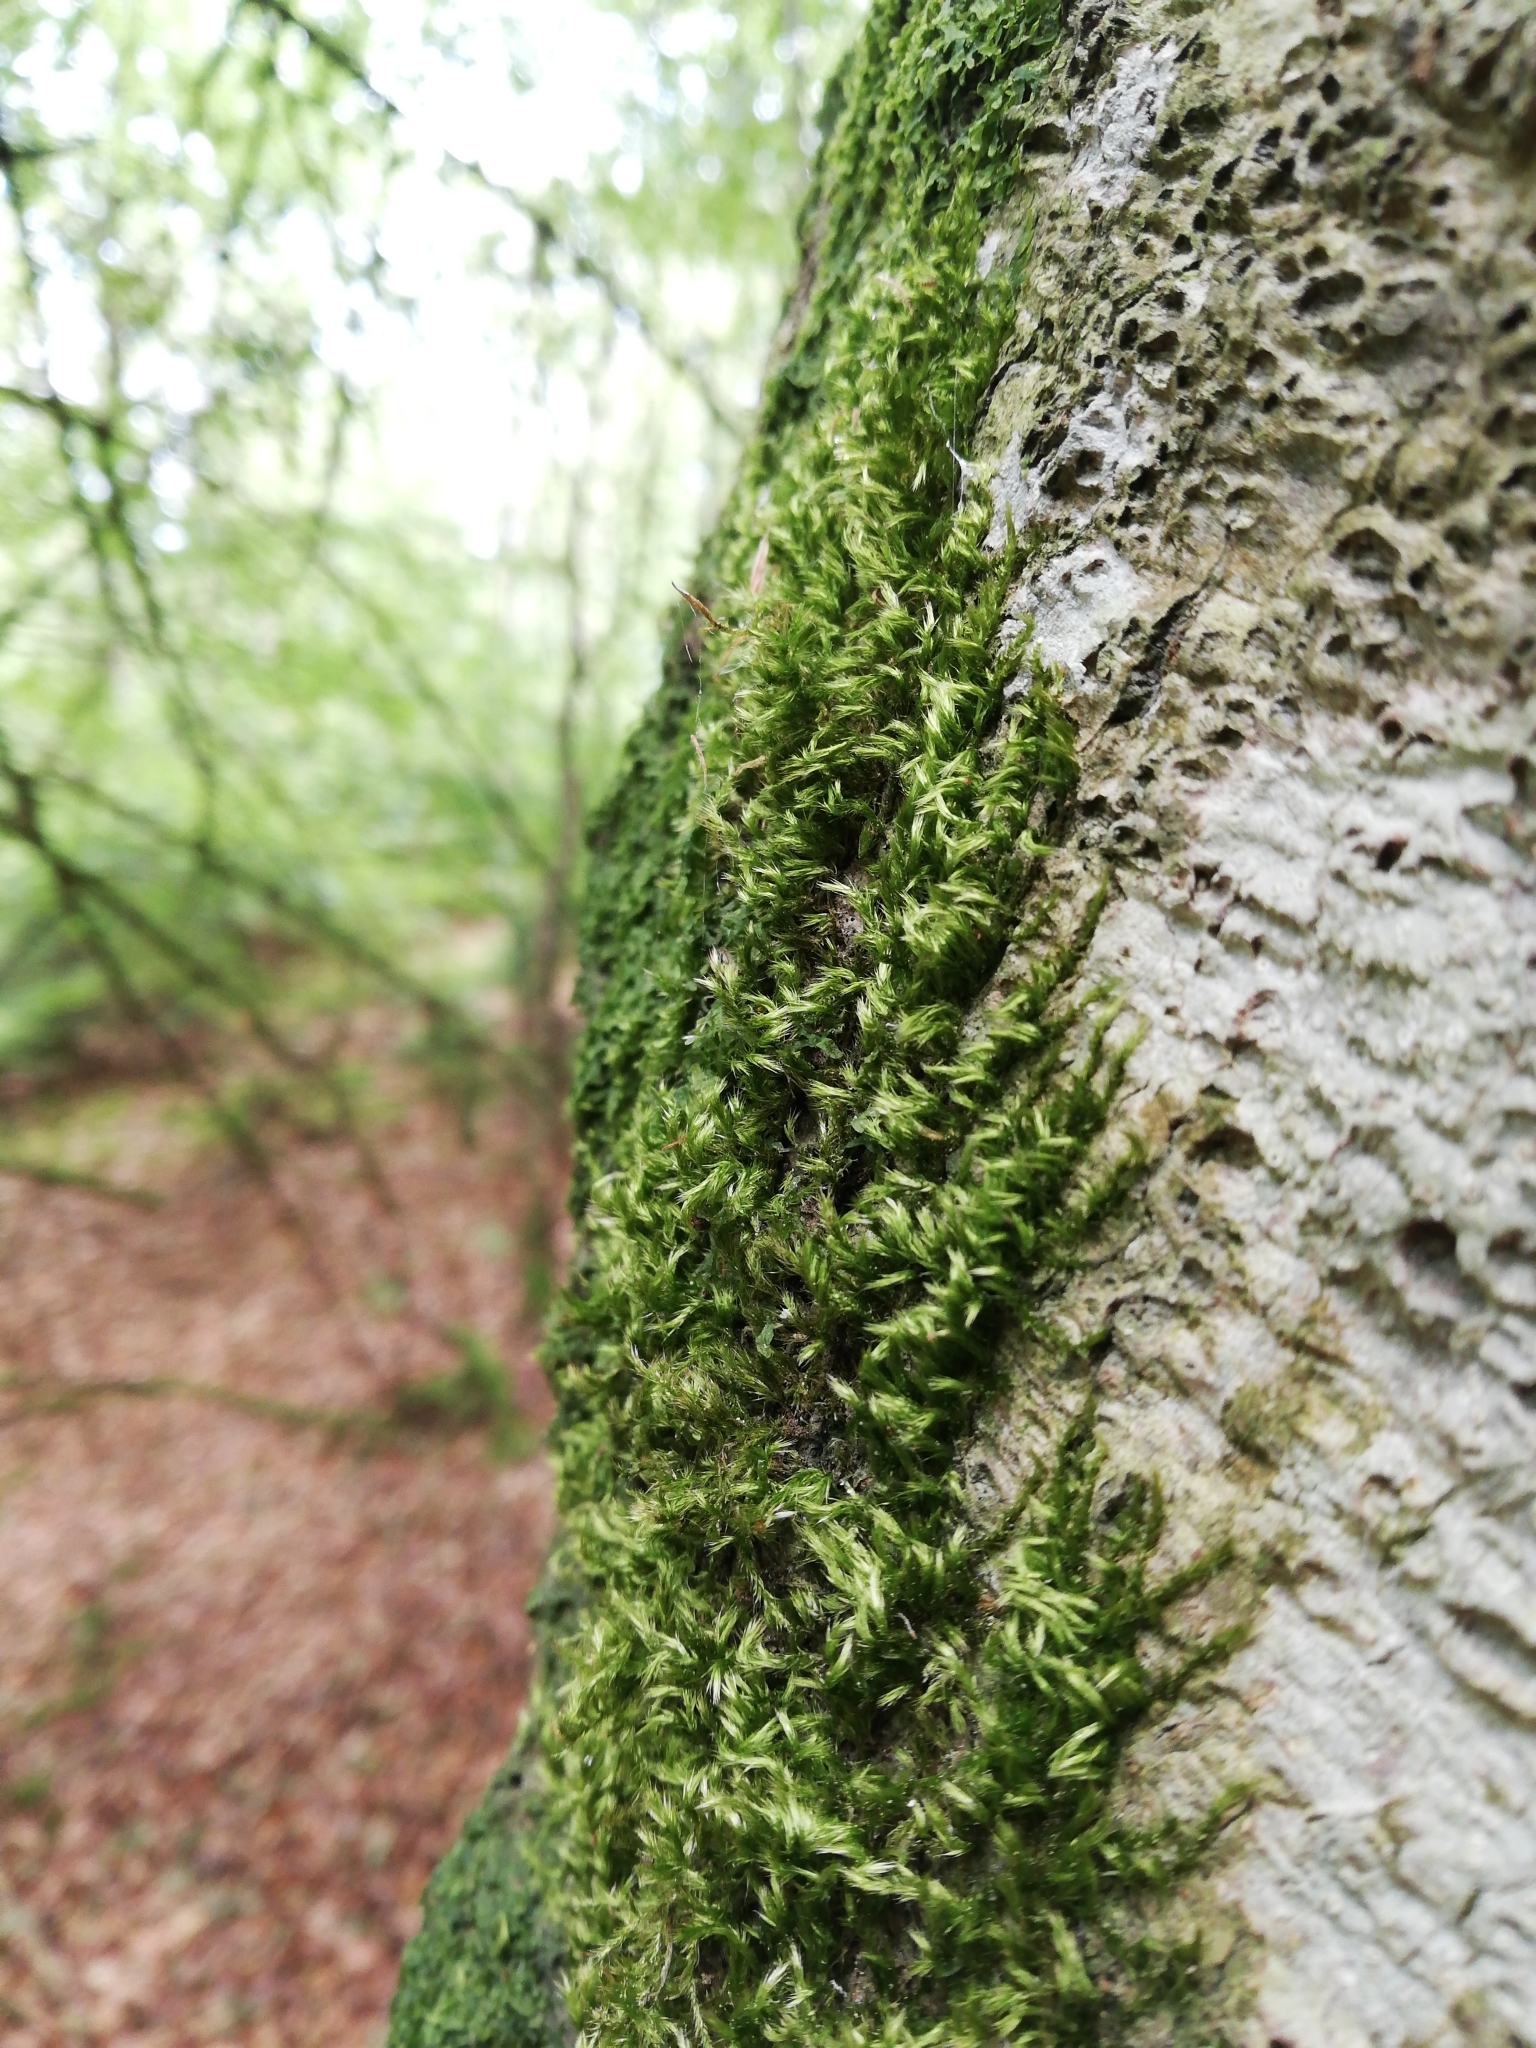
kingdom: Plantae
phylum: Bryophyta
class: Bryopsida
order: Hypnales
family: Brachytheciaceae
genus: Homalothecium
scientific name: Homalothecium sericeum
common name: Silky wall feather-moss
